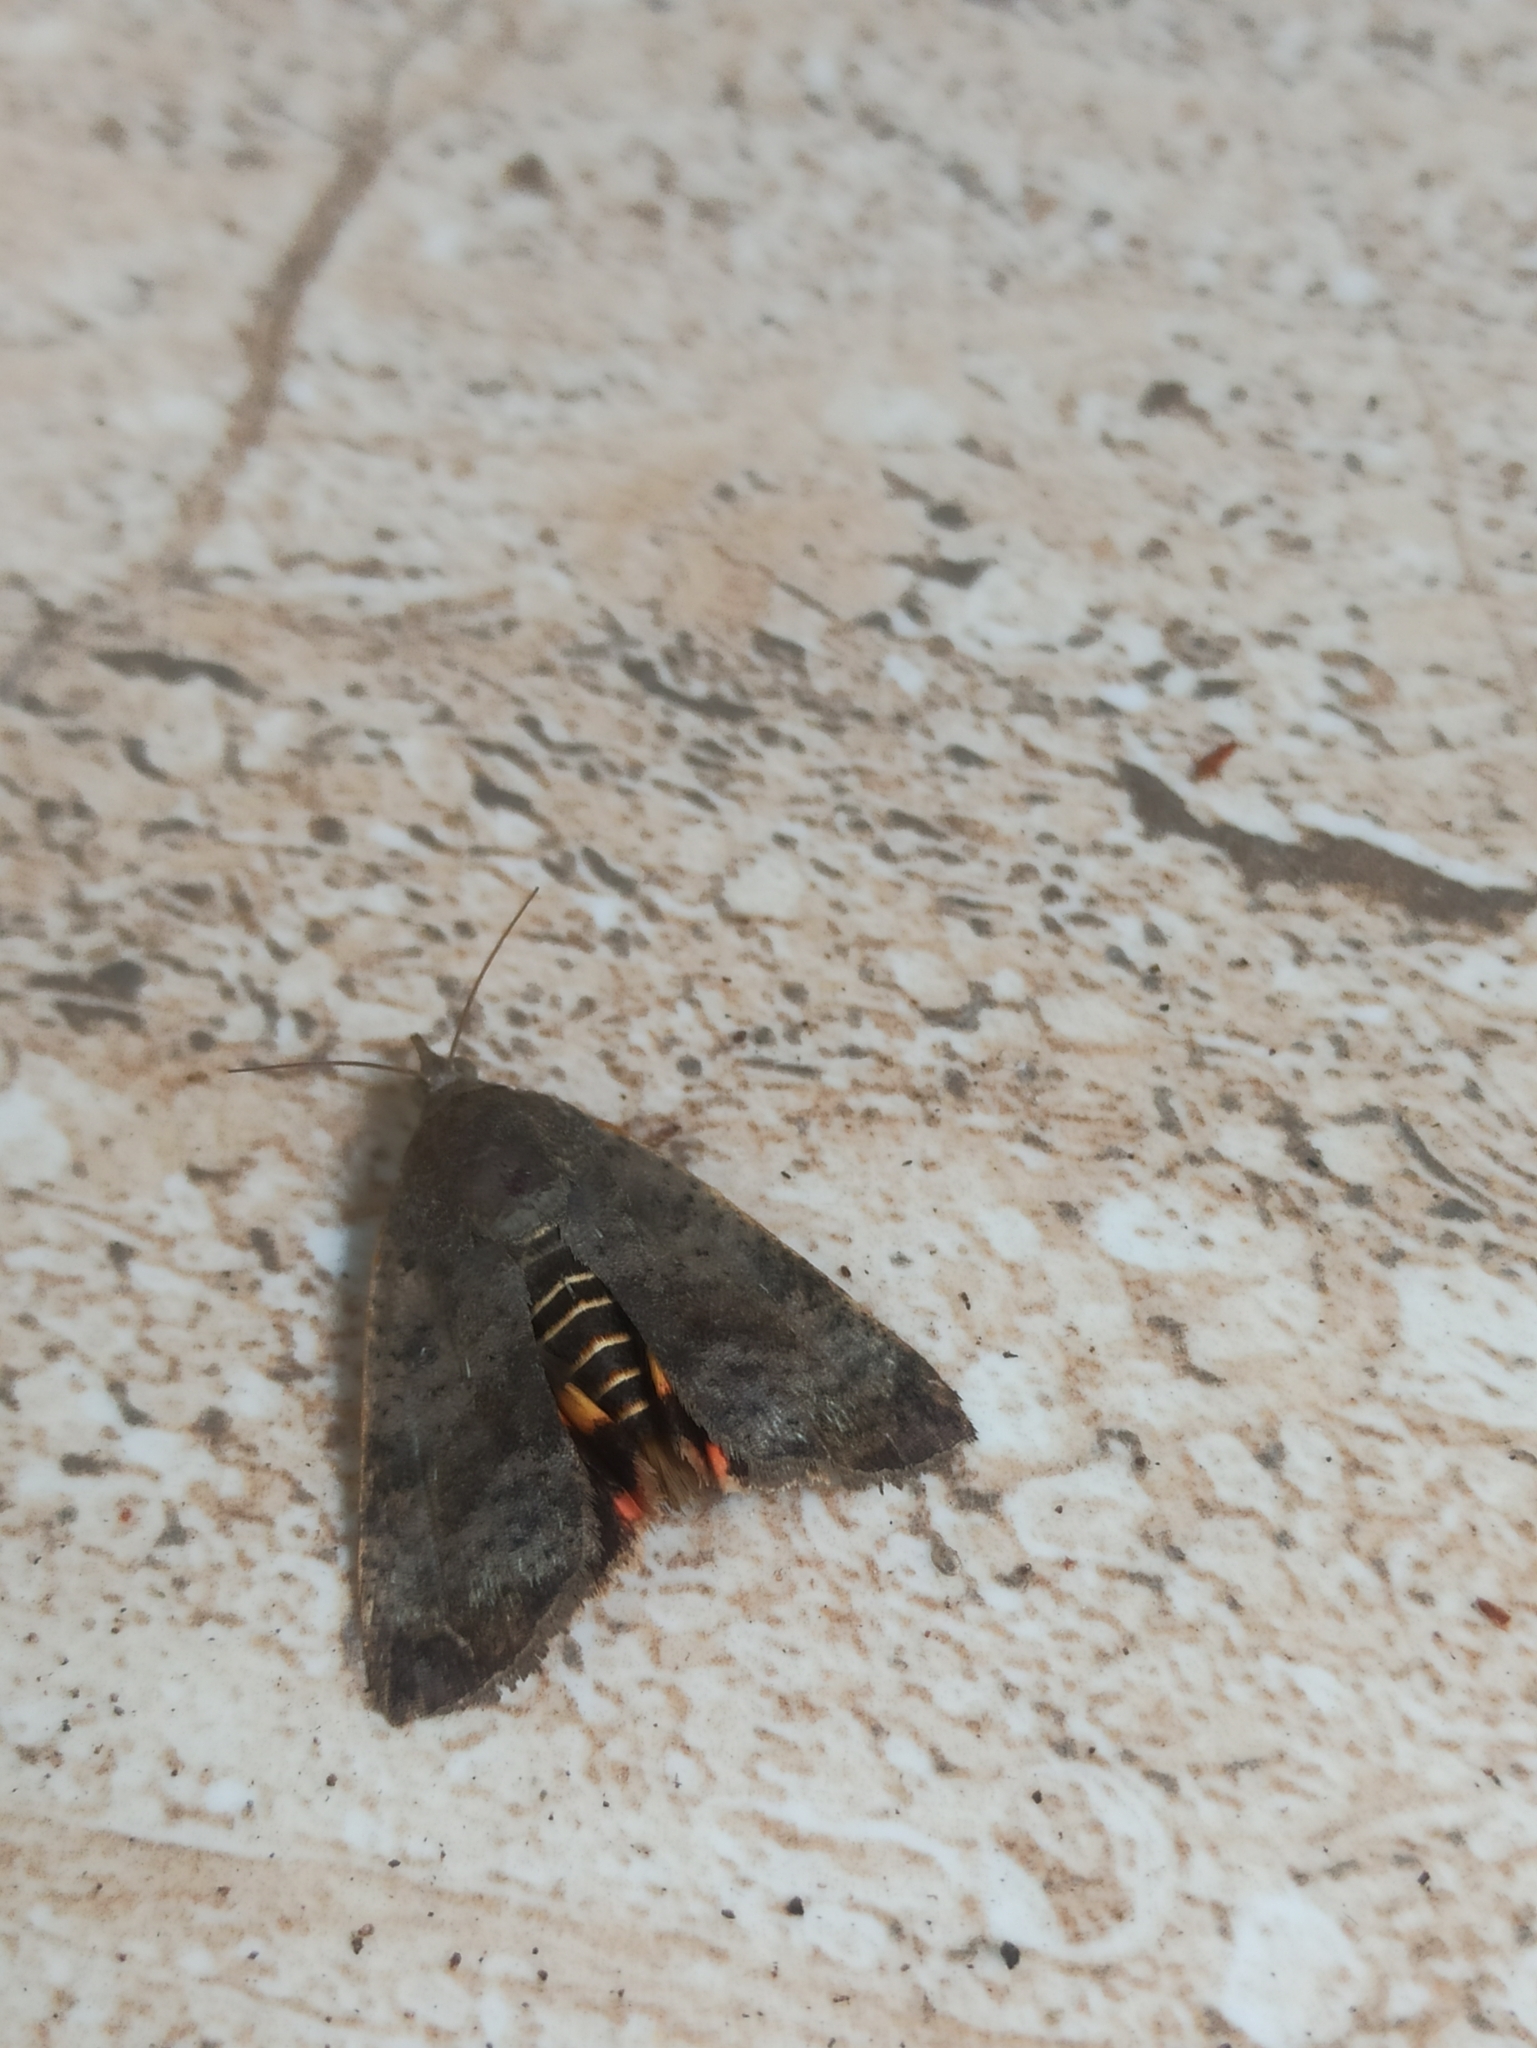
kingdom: Animalia
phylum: Arthropoda
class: Insecta
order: Lepidoptera
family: Hyblaeidae
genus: Hyblaea
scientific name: Hyblaea puera
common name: Teak defoliator moth
